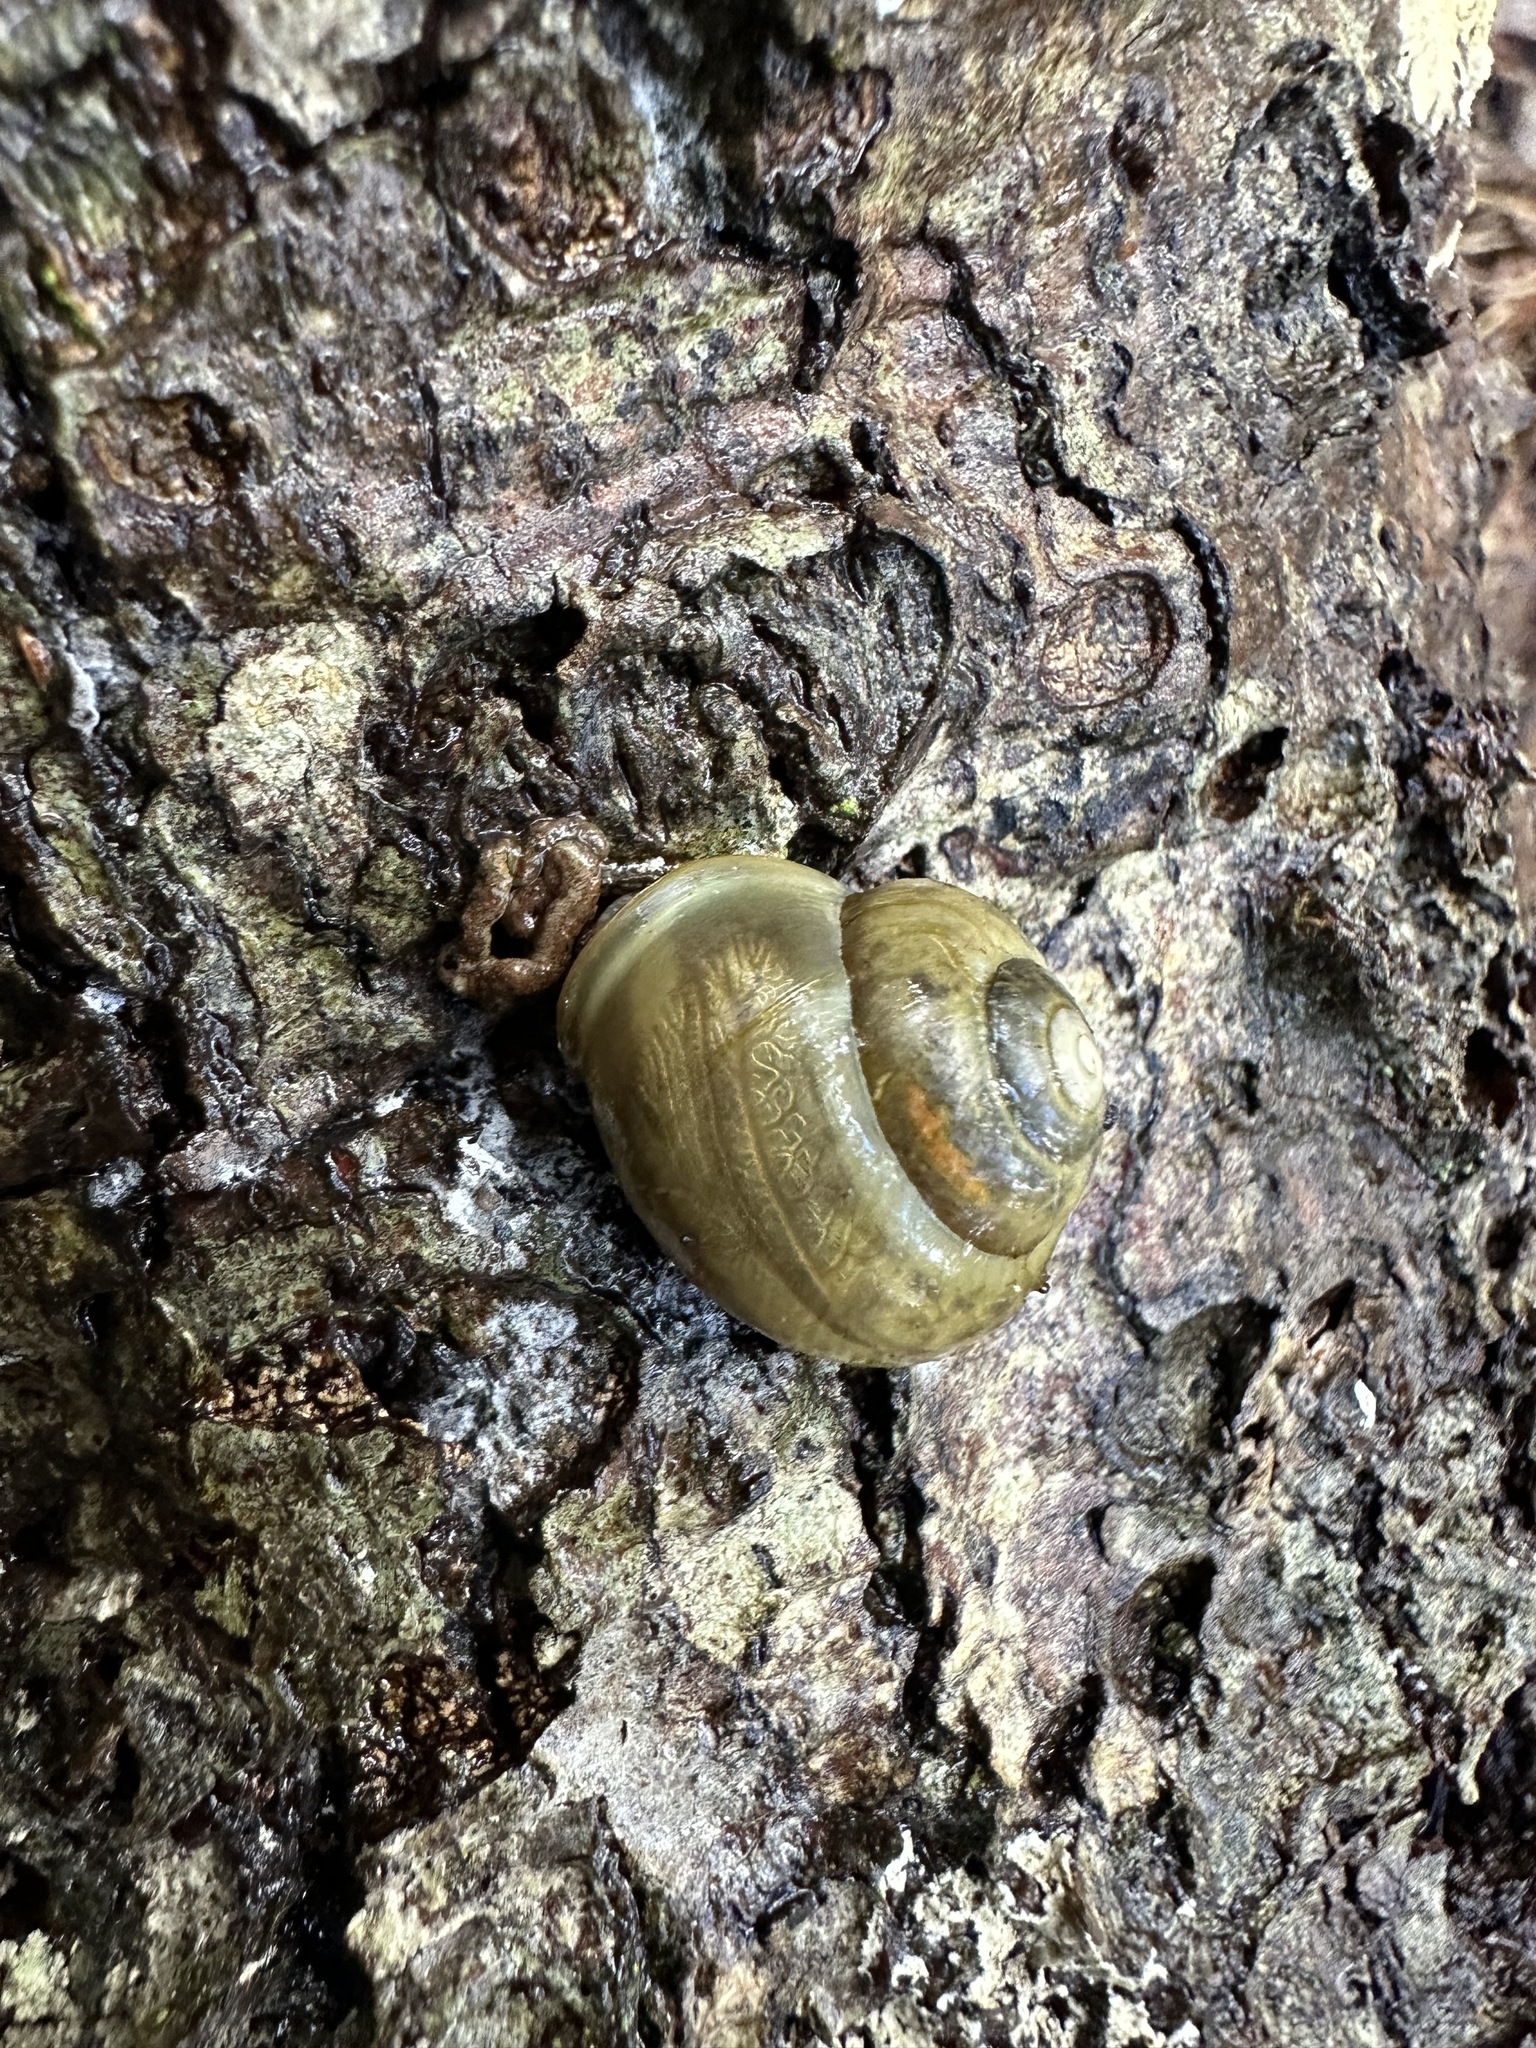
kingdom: Animalia
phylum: Mollusca
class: Gastropoda
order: Stylommatophora
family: Helicidae
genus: Cepaea
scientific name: Cepaea hortensis
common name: White-lip gardensnail
